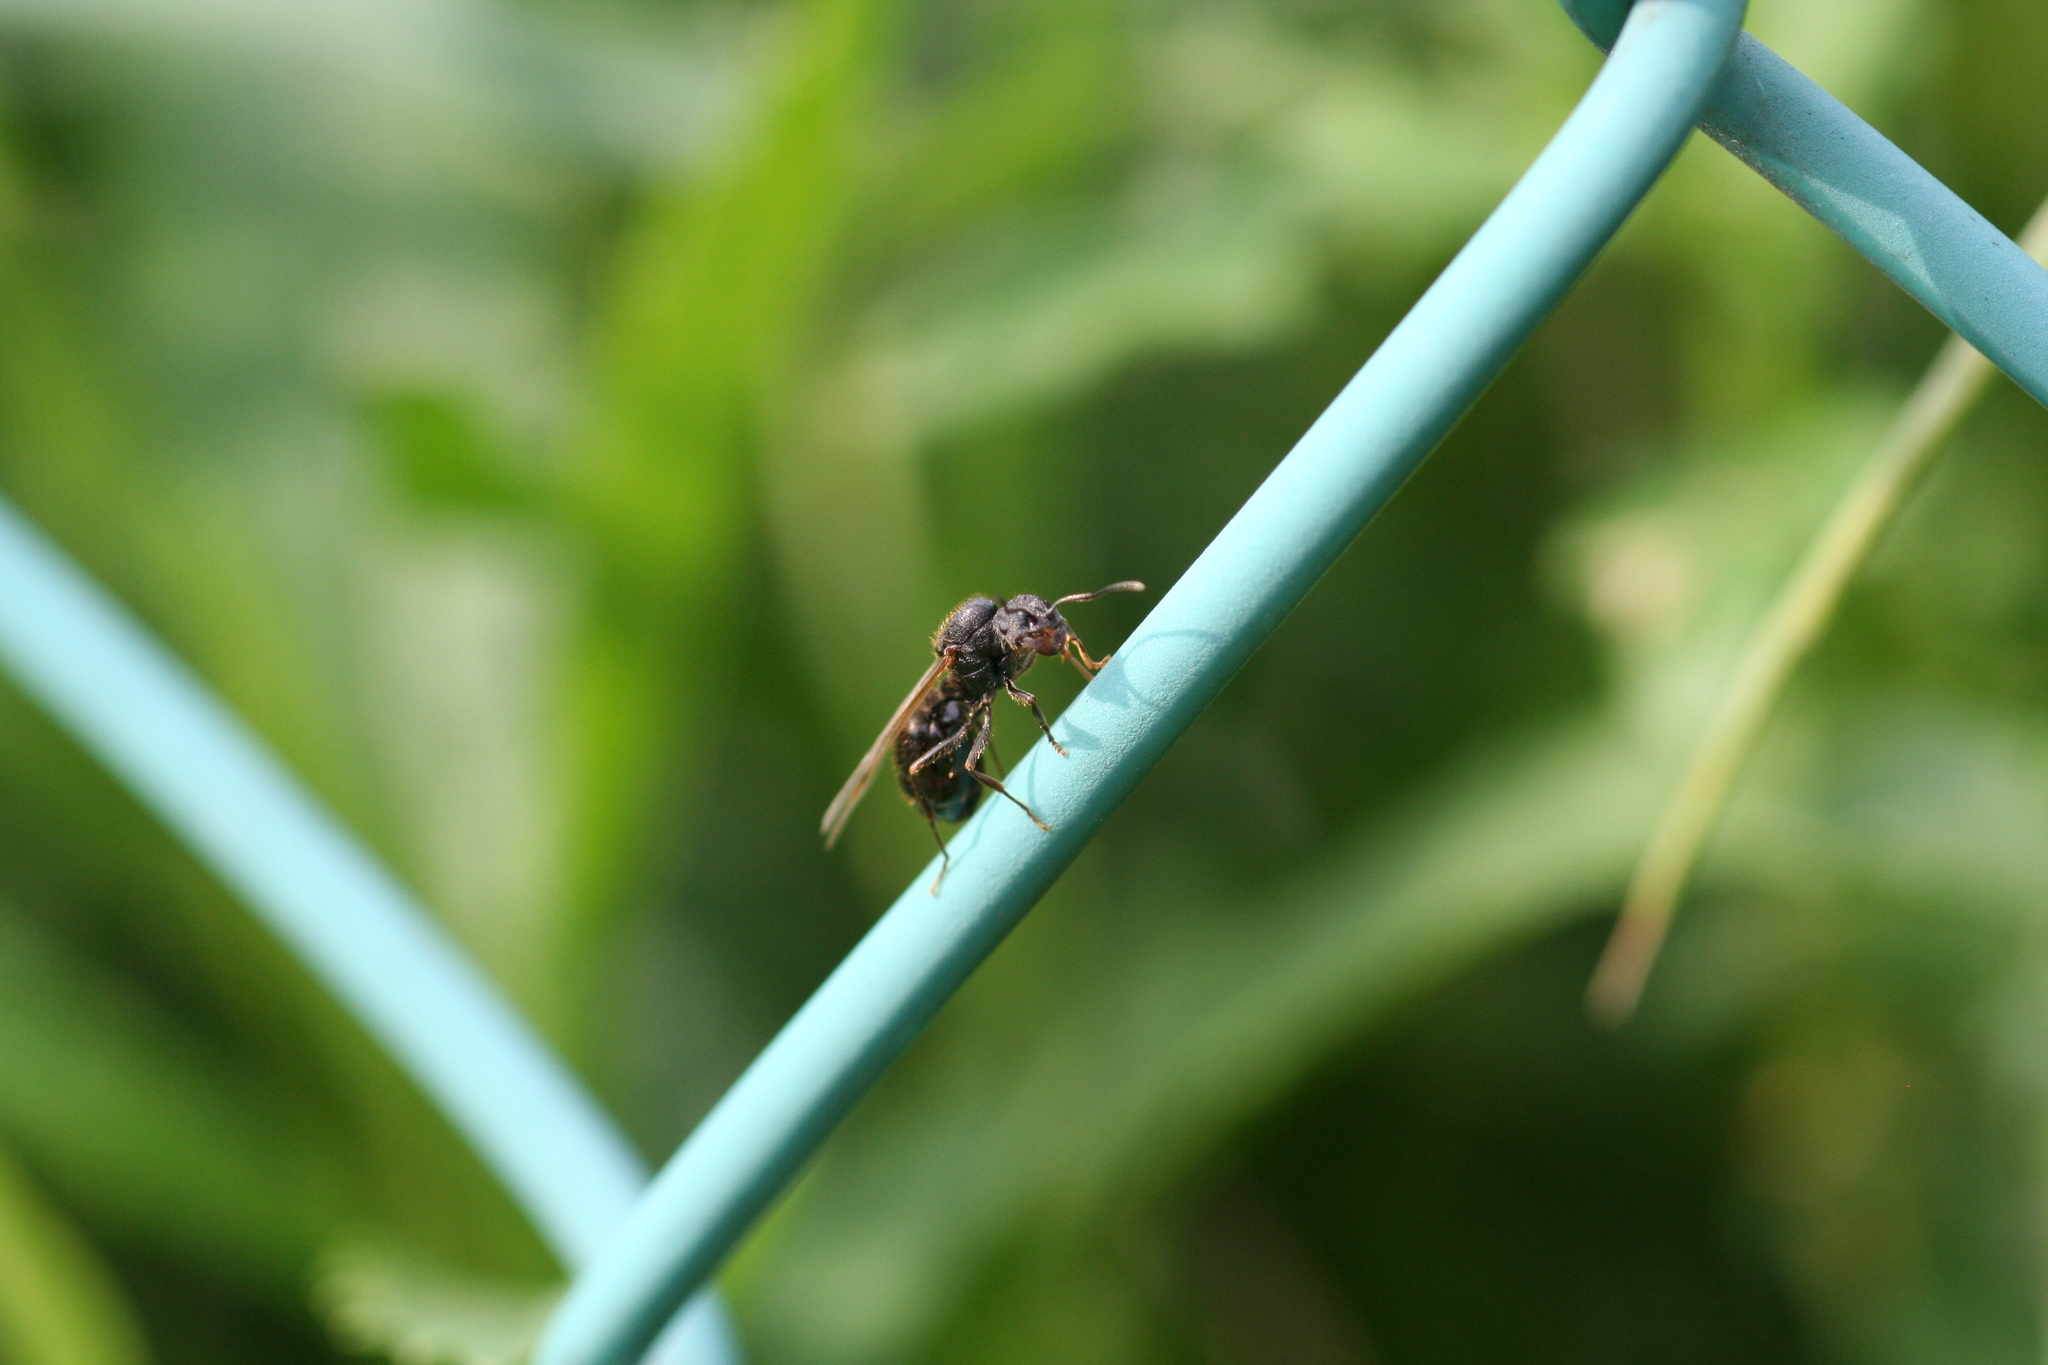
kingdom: Animalia
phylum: Arthropoda
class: Insecta
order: Hymenoptera
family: Formicidae
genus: Messor
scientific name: Messor aciculatus
